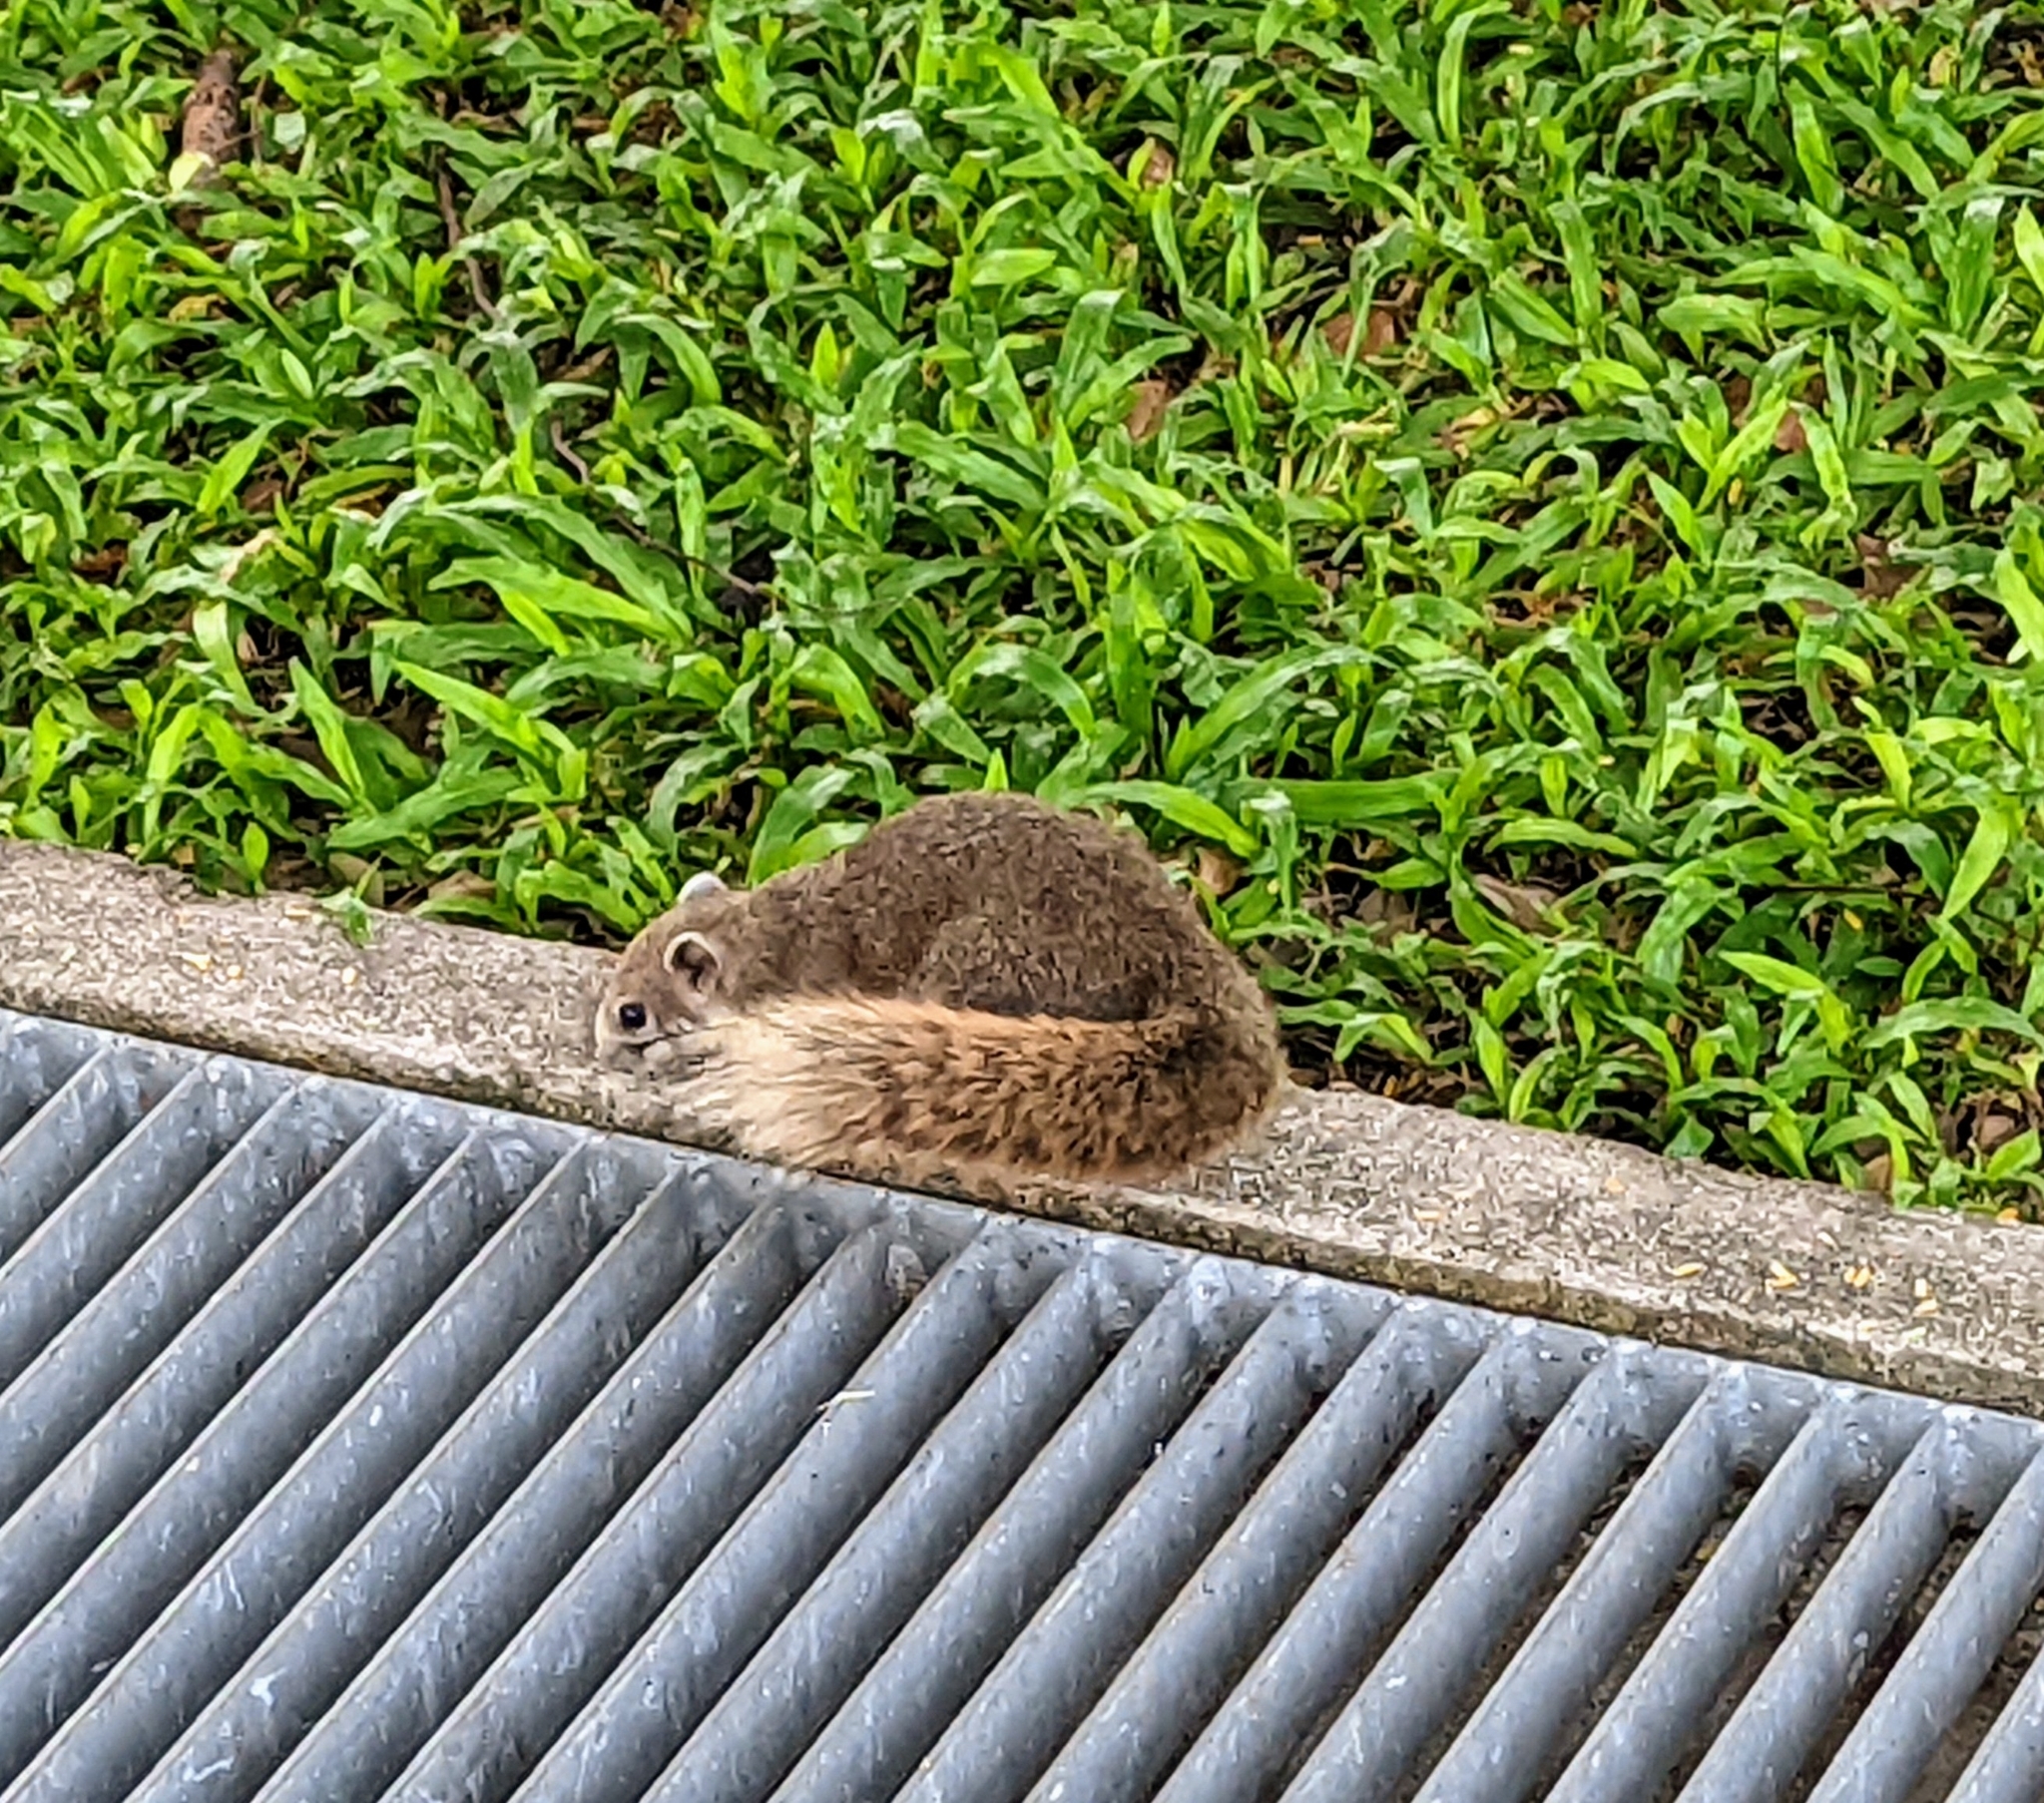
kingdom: Animalia
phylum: Chordata
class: Mammalia
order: Rodentia
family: Sciuridae
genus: Callosciurus
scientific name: Callosciurus finlaysonii
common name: Finlayson's squirrel
